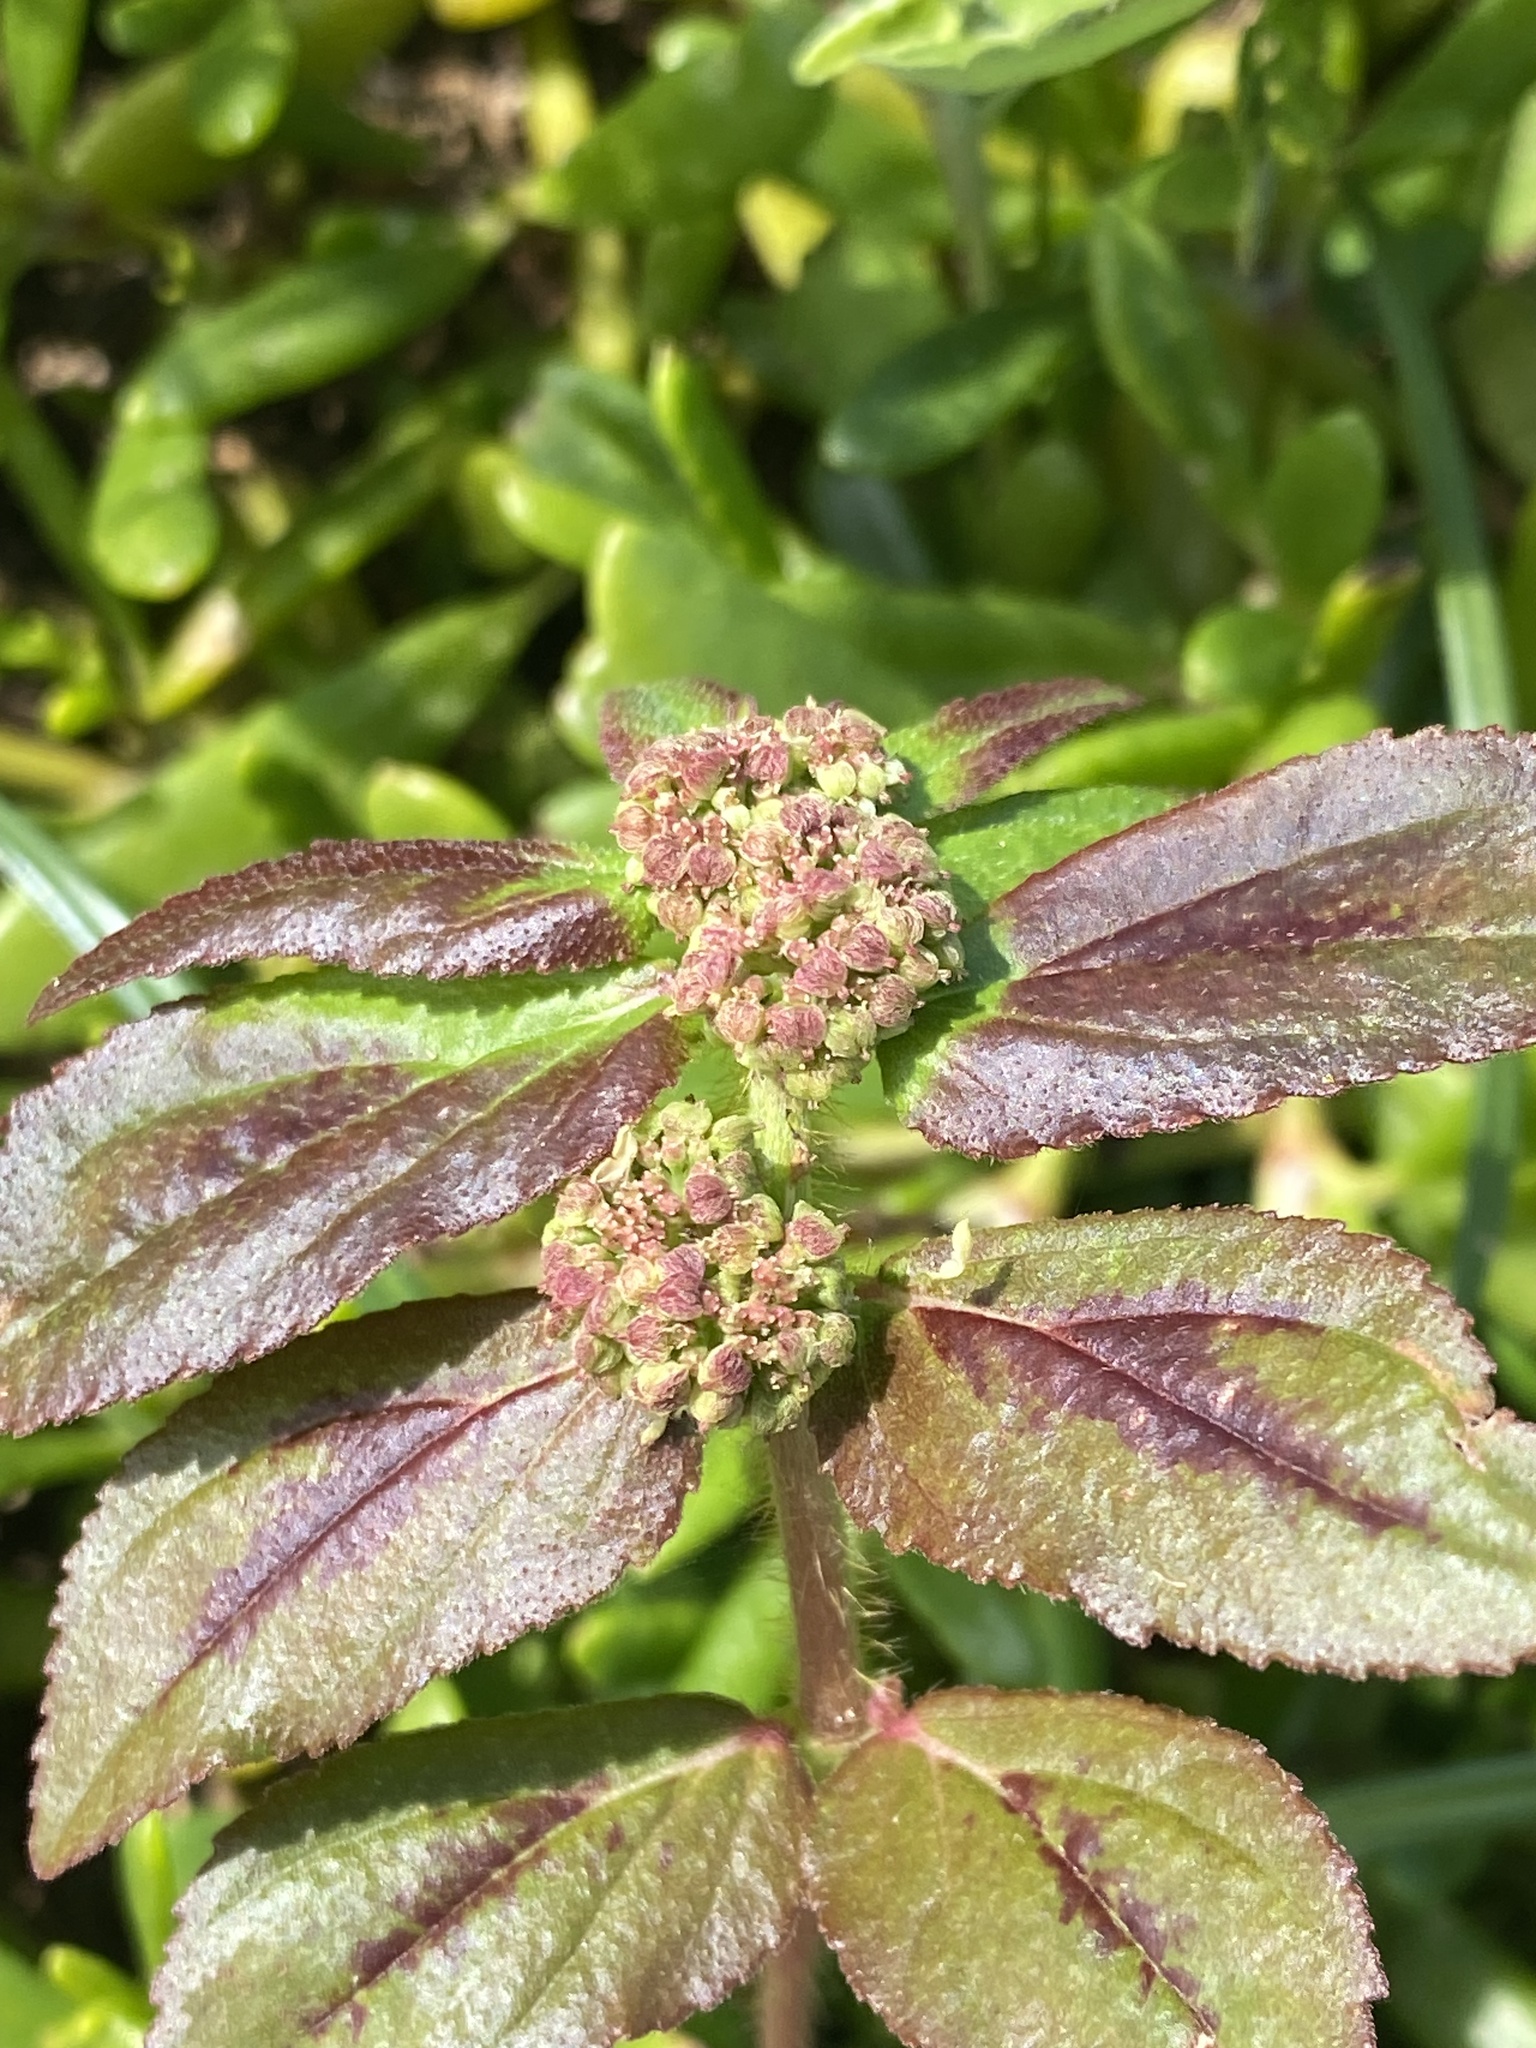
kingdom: Plantae
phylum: Tracheophyta
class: Magnoliopsida
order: Malpighiales
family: Euphorbiaceae
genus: Euphorbia
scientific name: Euphorbia hirta
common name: Pillpod sandmat
